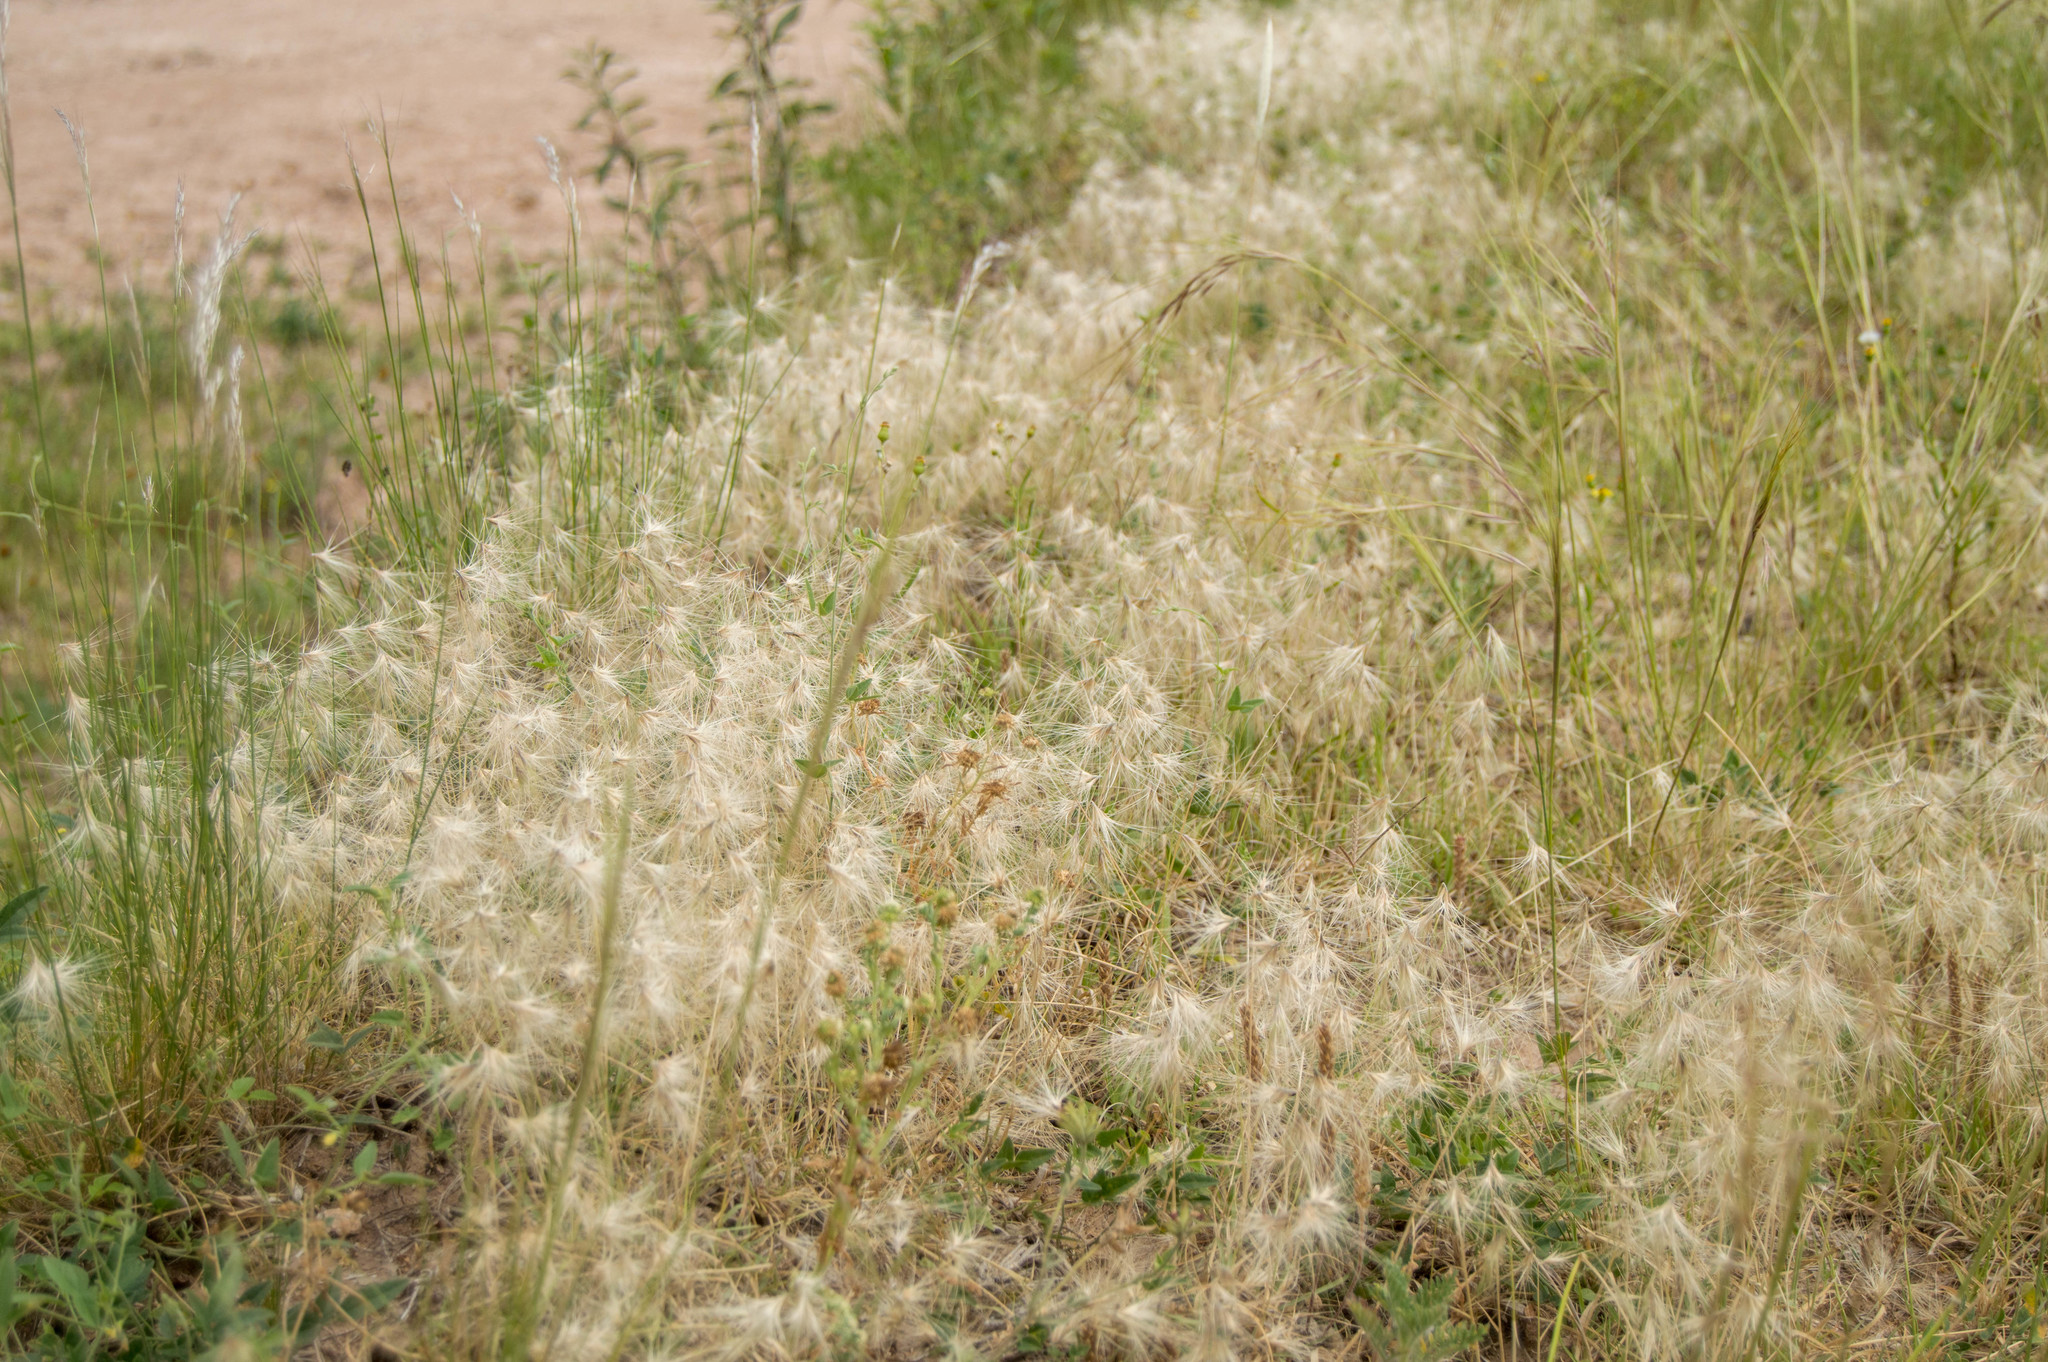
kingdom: Plantae
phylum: Tracheophyta
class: Liliopsida
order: Poales
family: Poaceae
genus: Bouteloua
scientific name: Bouteloua megapotamica
